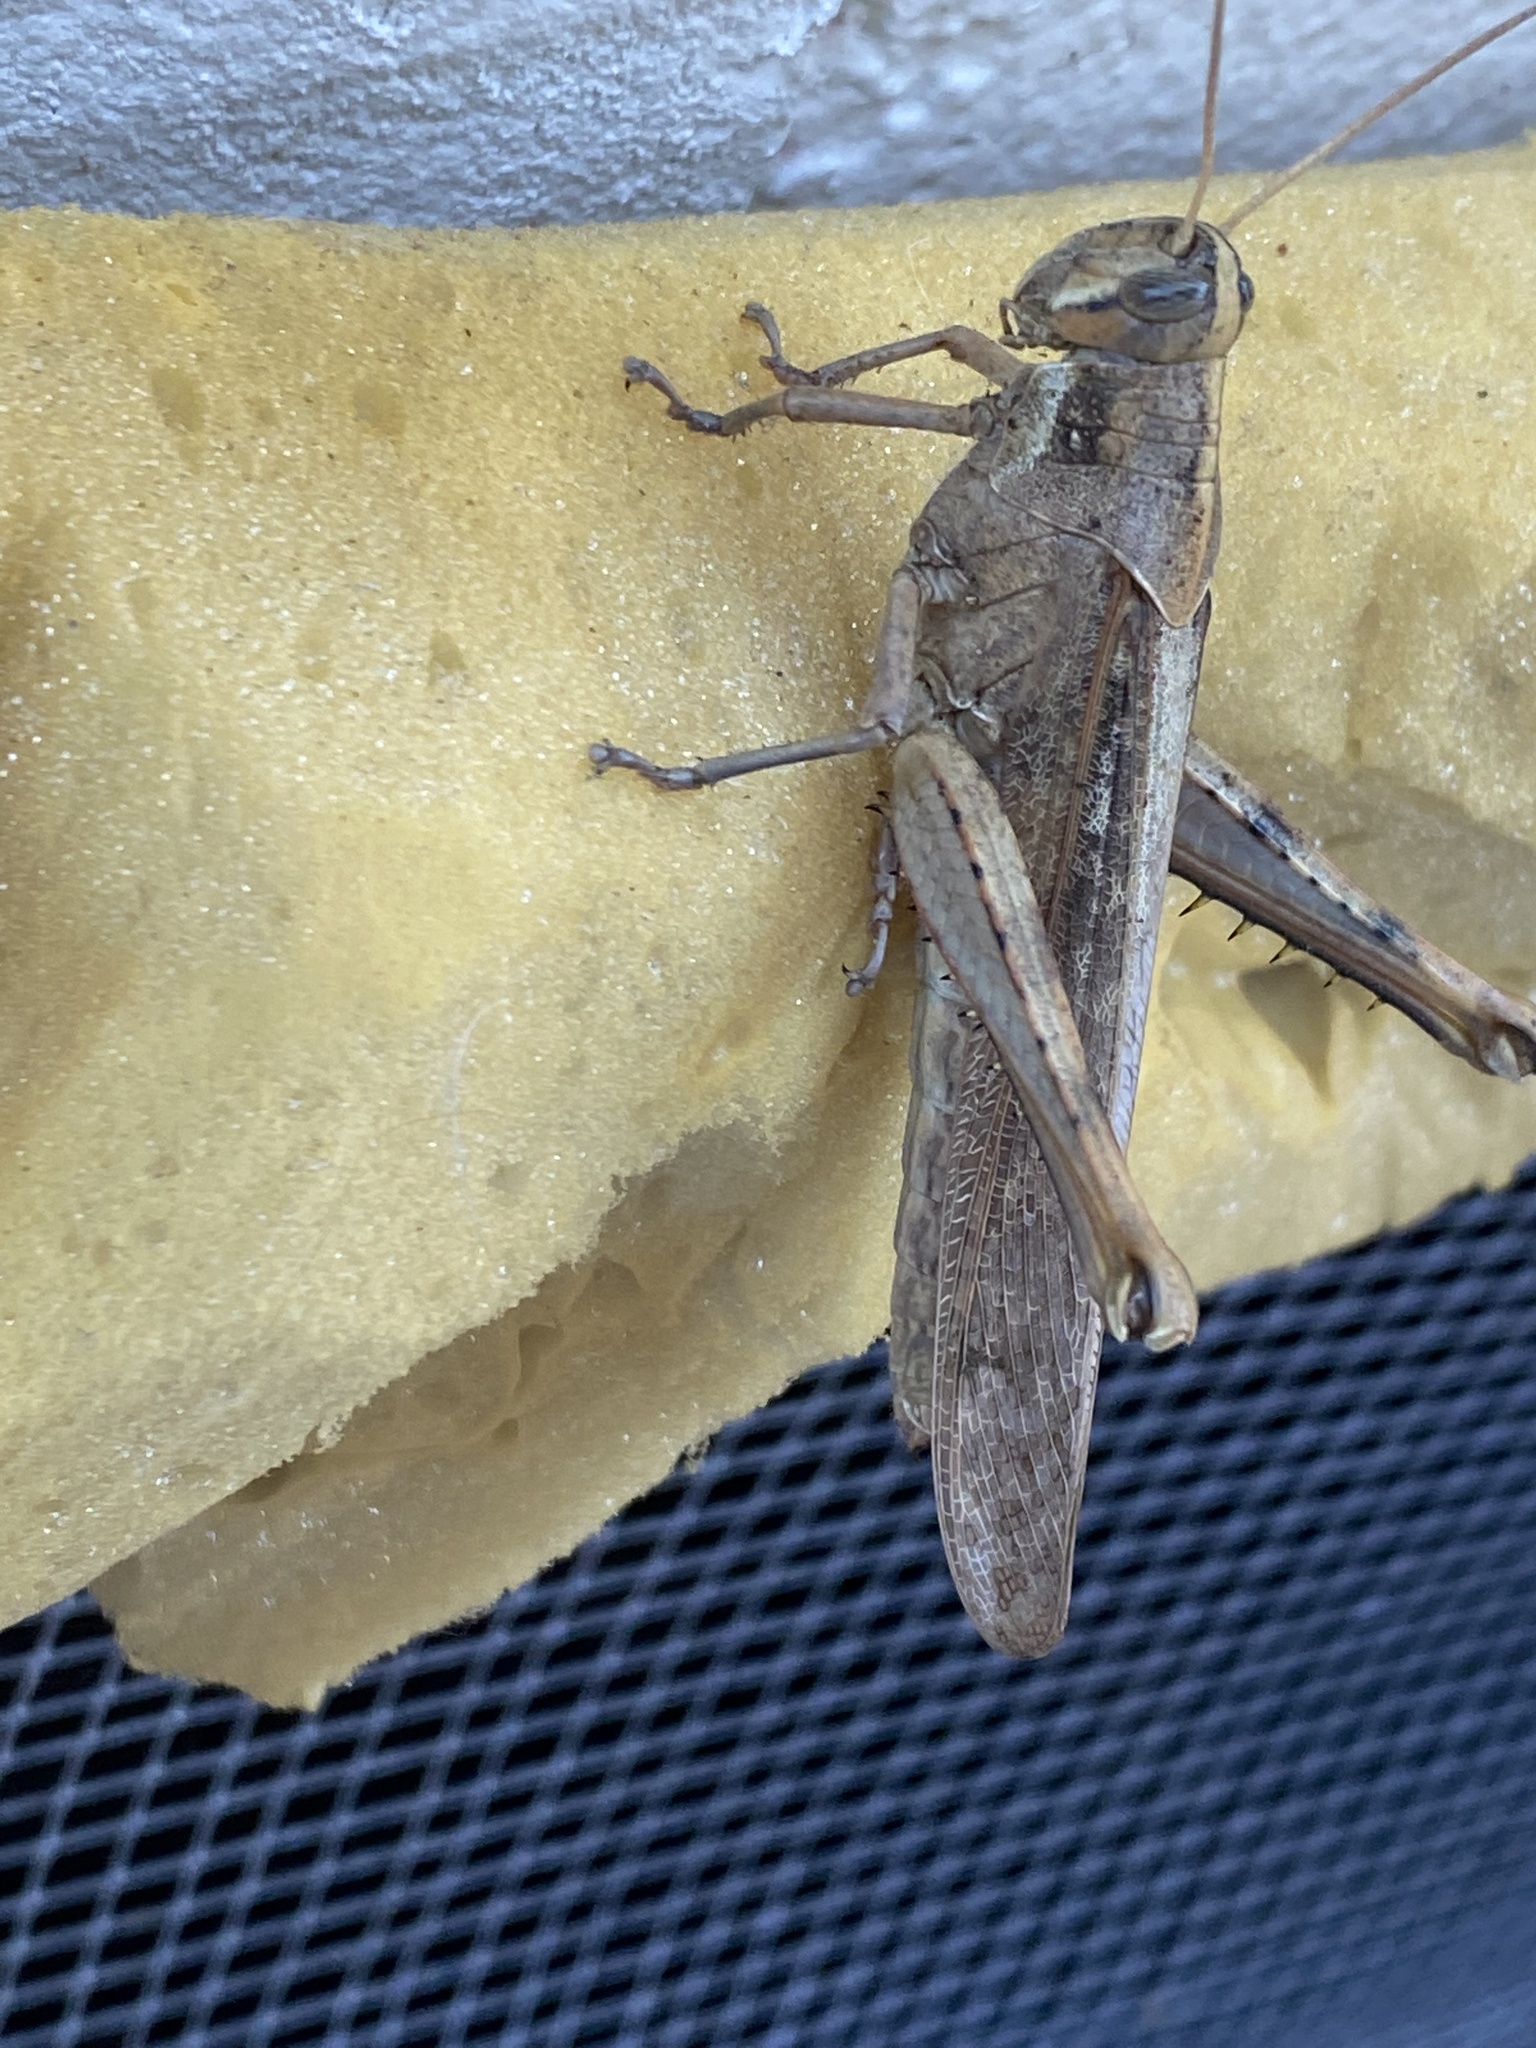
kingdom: Animalia
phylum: Arthropoda
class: Insecta
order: Orthoptera
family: Acrididae
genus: Schistocerca
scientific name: Schistocerca nitens
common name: Vagrant grasshopper
